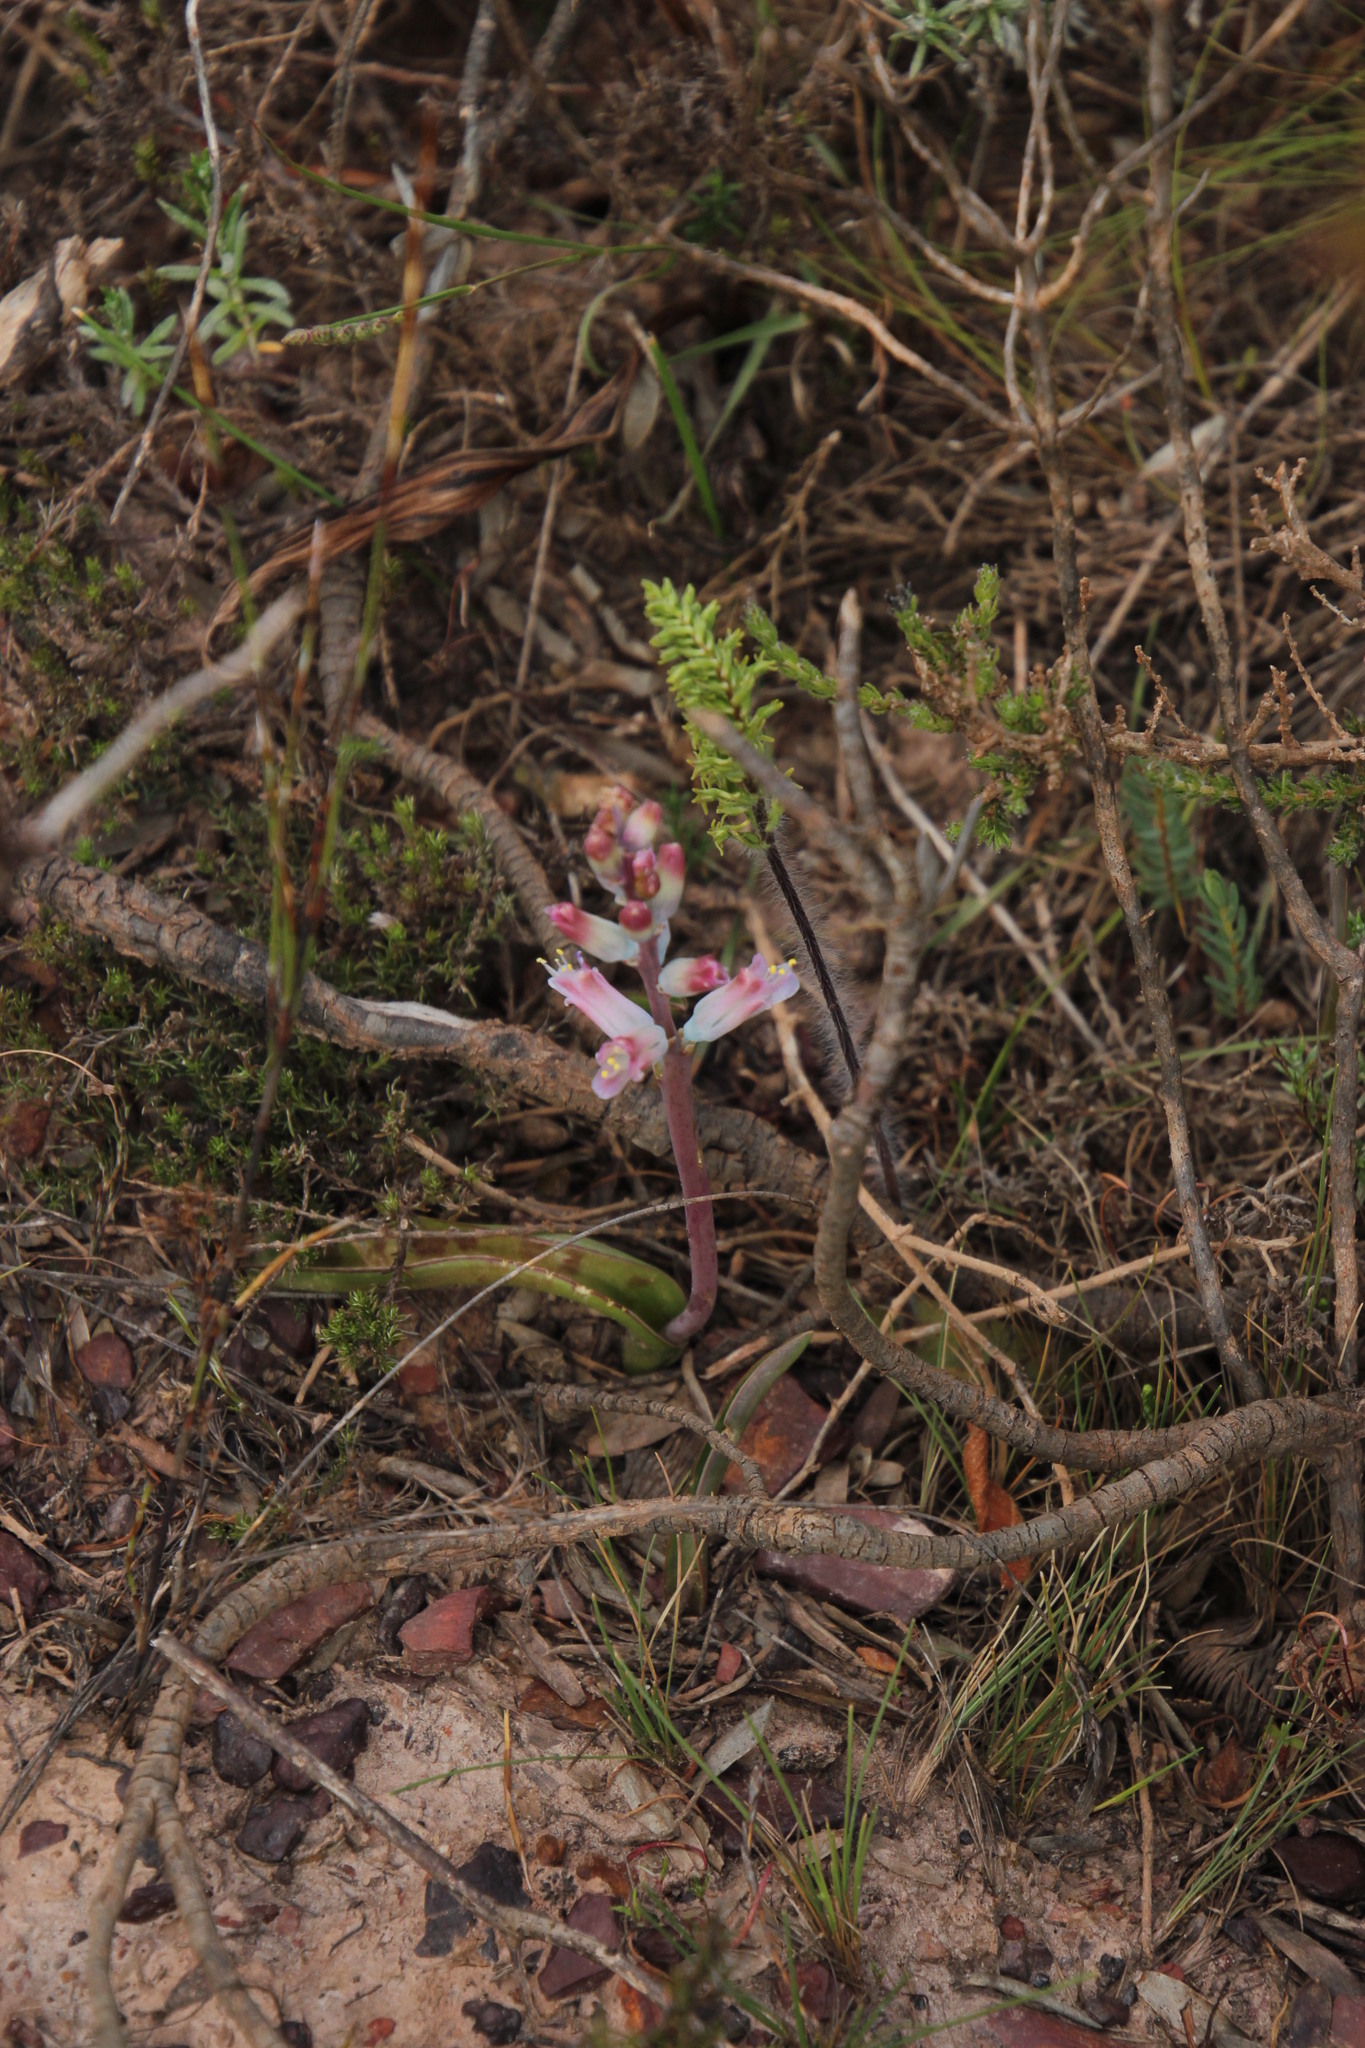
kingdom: Plantae
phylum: Tracheophyta
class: Liliopsida
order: Asparagales
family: Orchidaceae
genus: Holothrix
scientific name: Holothrix villosa
